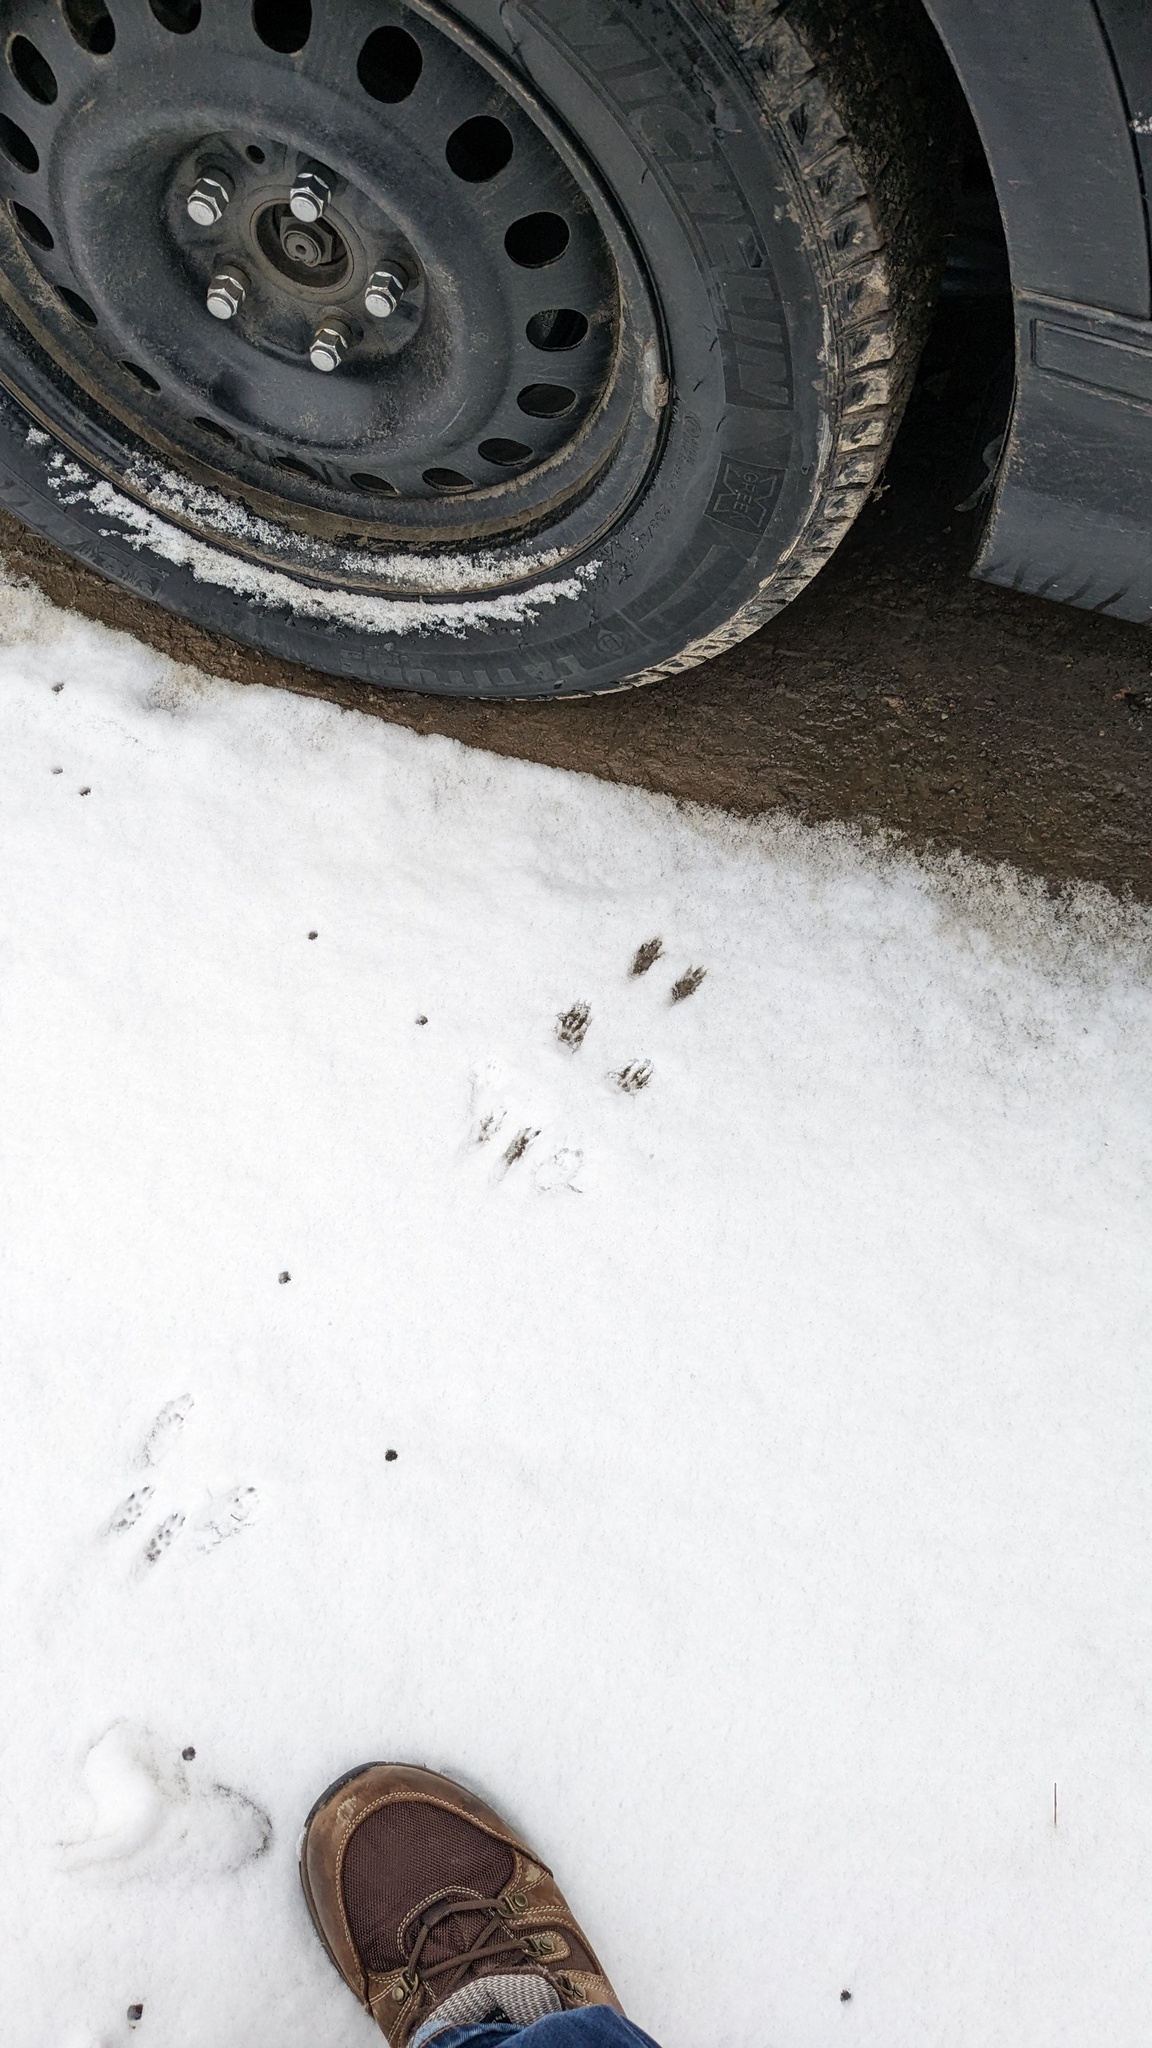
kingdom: Animalia
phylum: Chordata
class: Mammalia
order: Rodentia
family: Sciuridae
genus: Tamiasciurus
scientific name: Tamiasciurus hudsonicus
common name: Red squirrel
